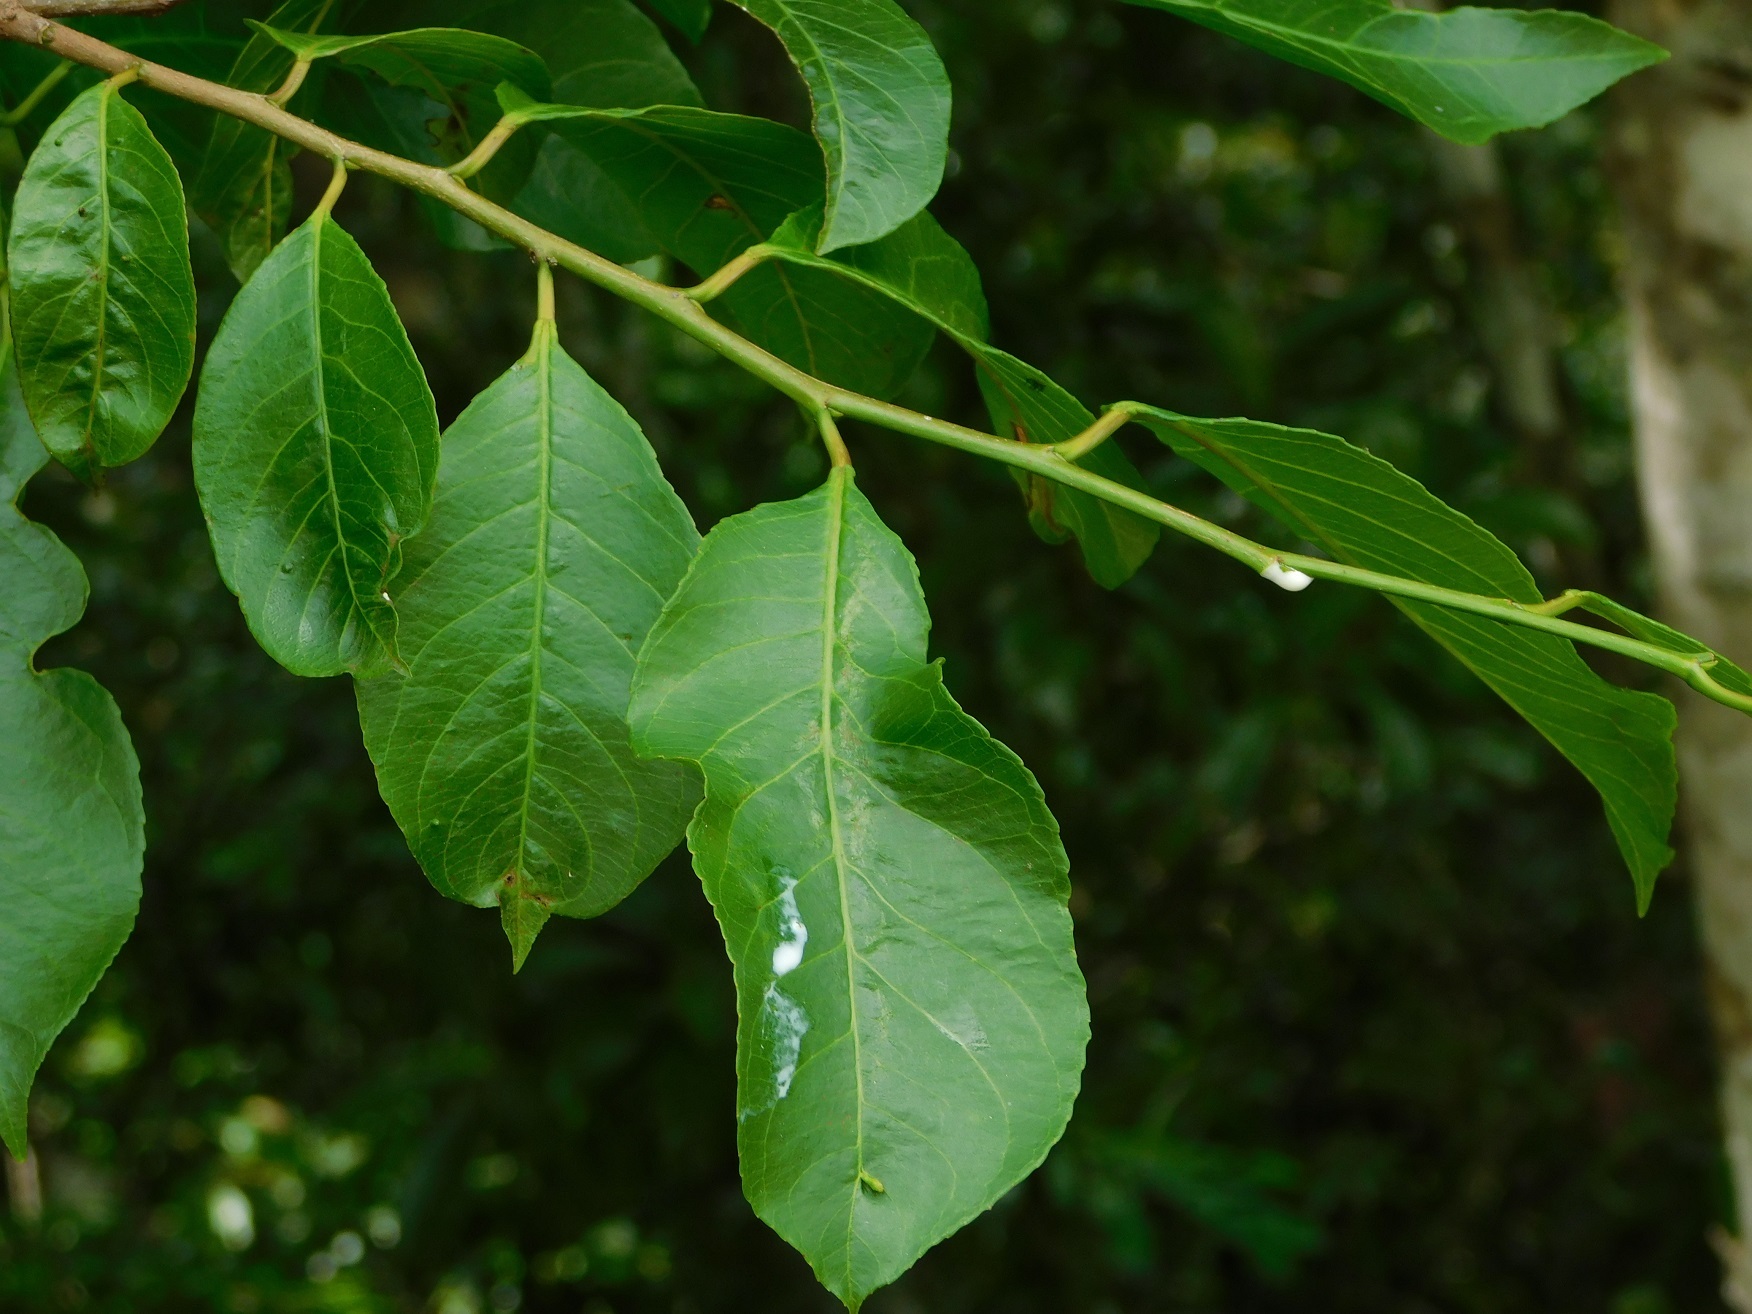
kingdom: Plantae
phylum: Tracheophyta
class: Magnoliopsida
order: Malpighiales
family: Euphorbiaceae
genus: Sebastiania
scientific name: Sebastiania glandulosa
